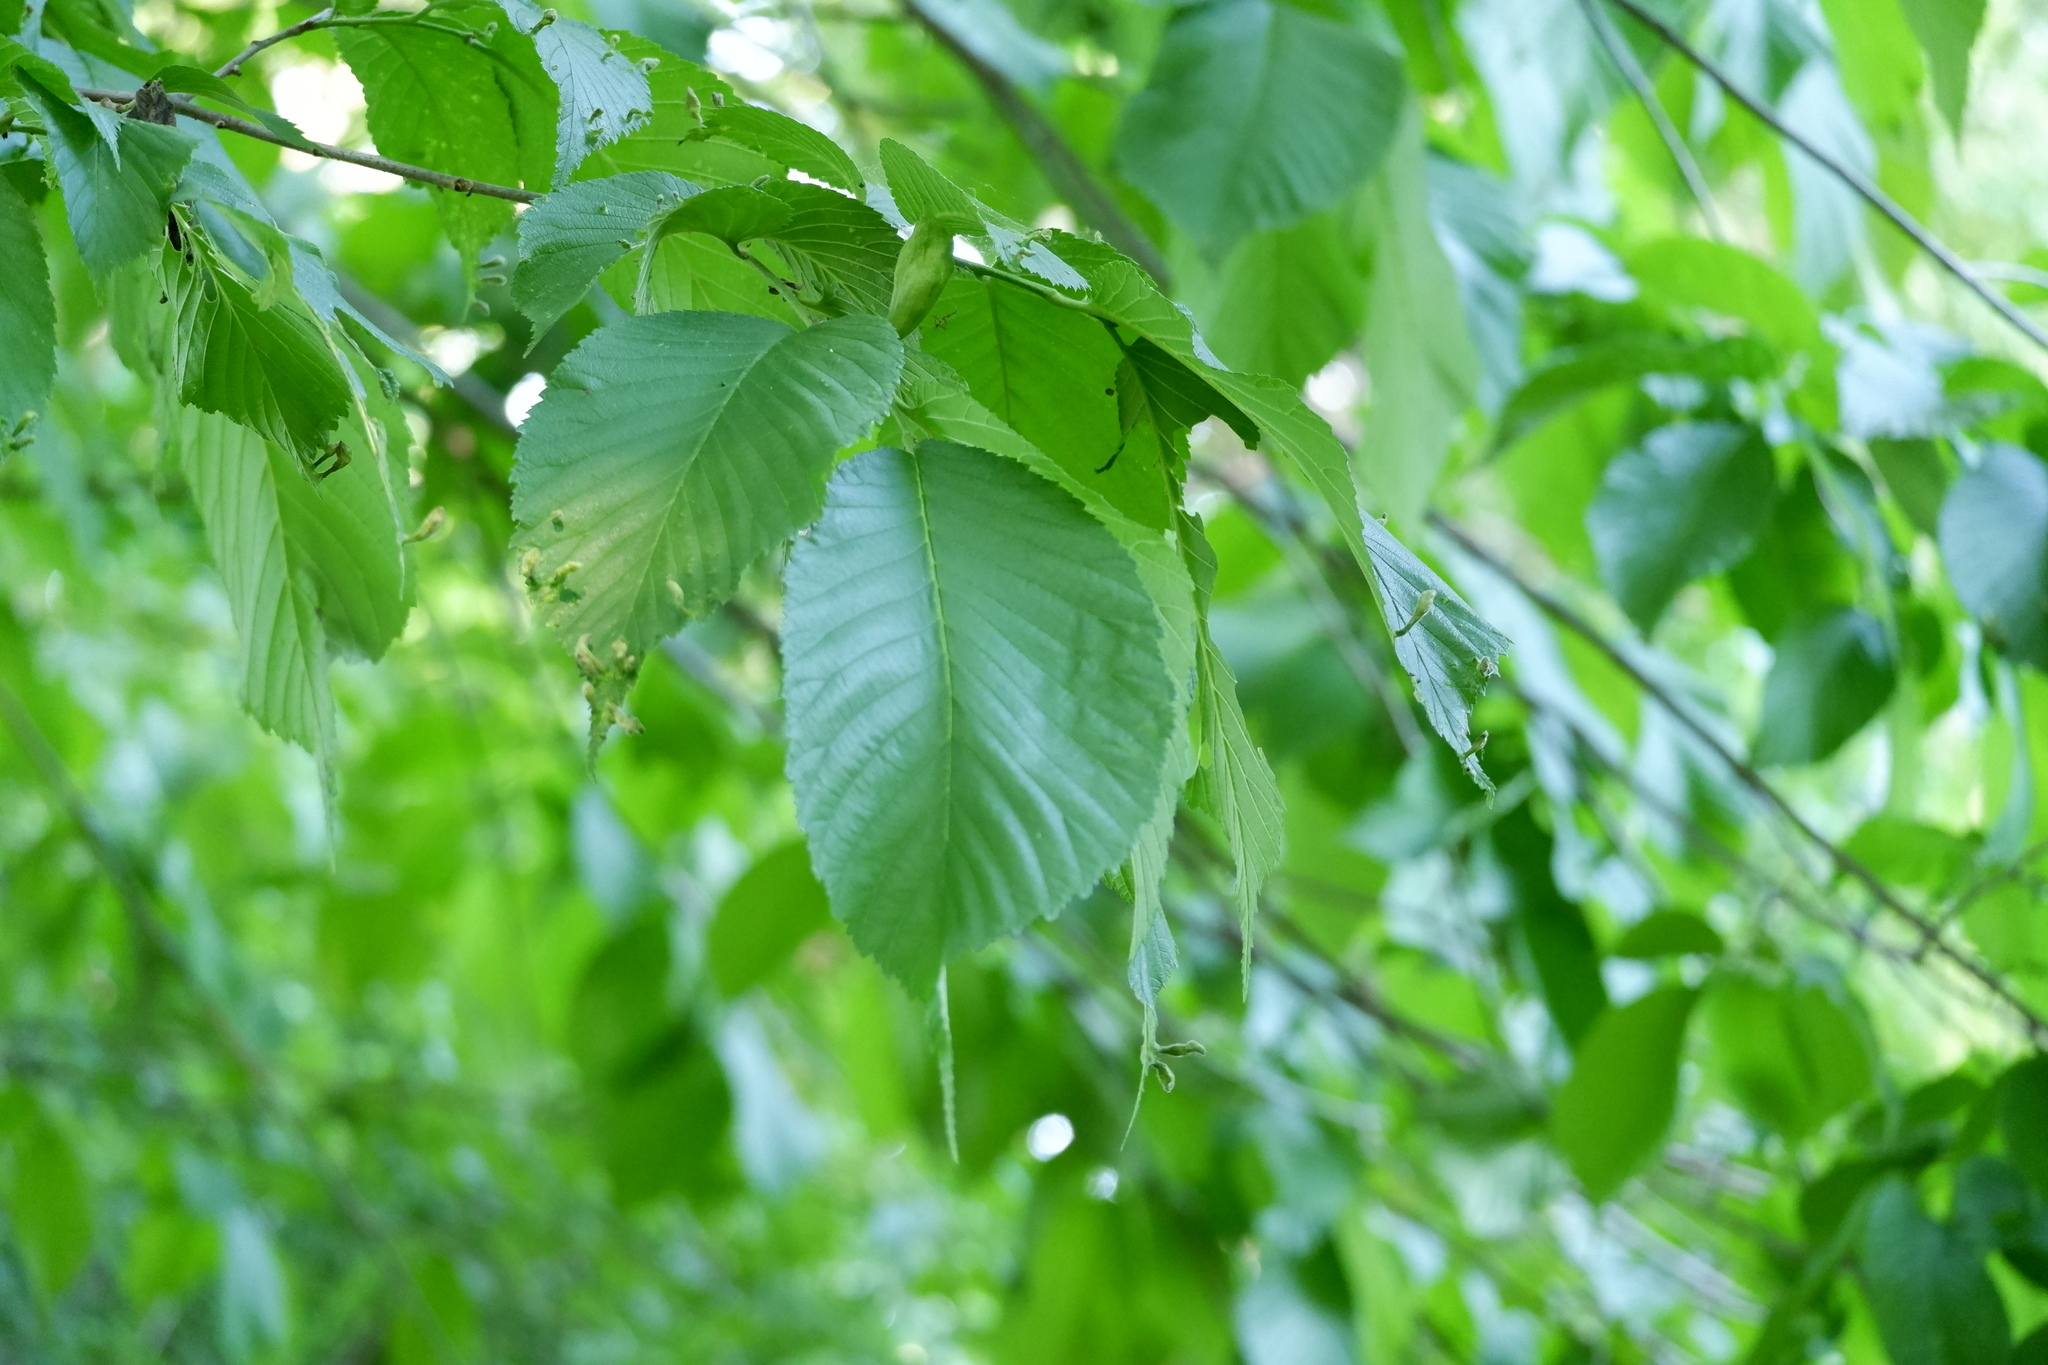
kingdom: Animalia
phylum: Arthropoda
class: Insecta
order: Hemiptera
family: Aphididae
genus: Tetraneura
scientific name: Tetraneura nigriabdominalis
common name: Aphid
